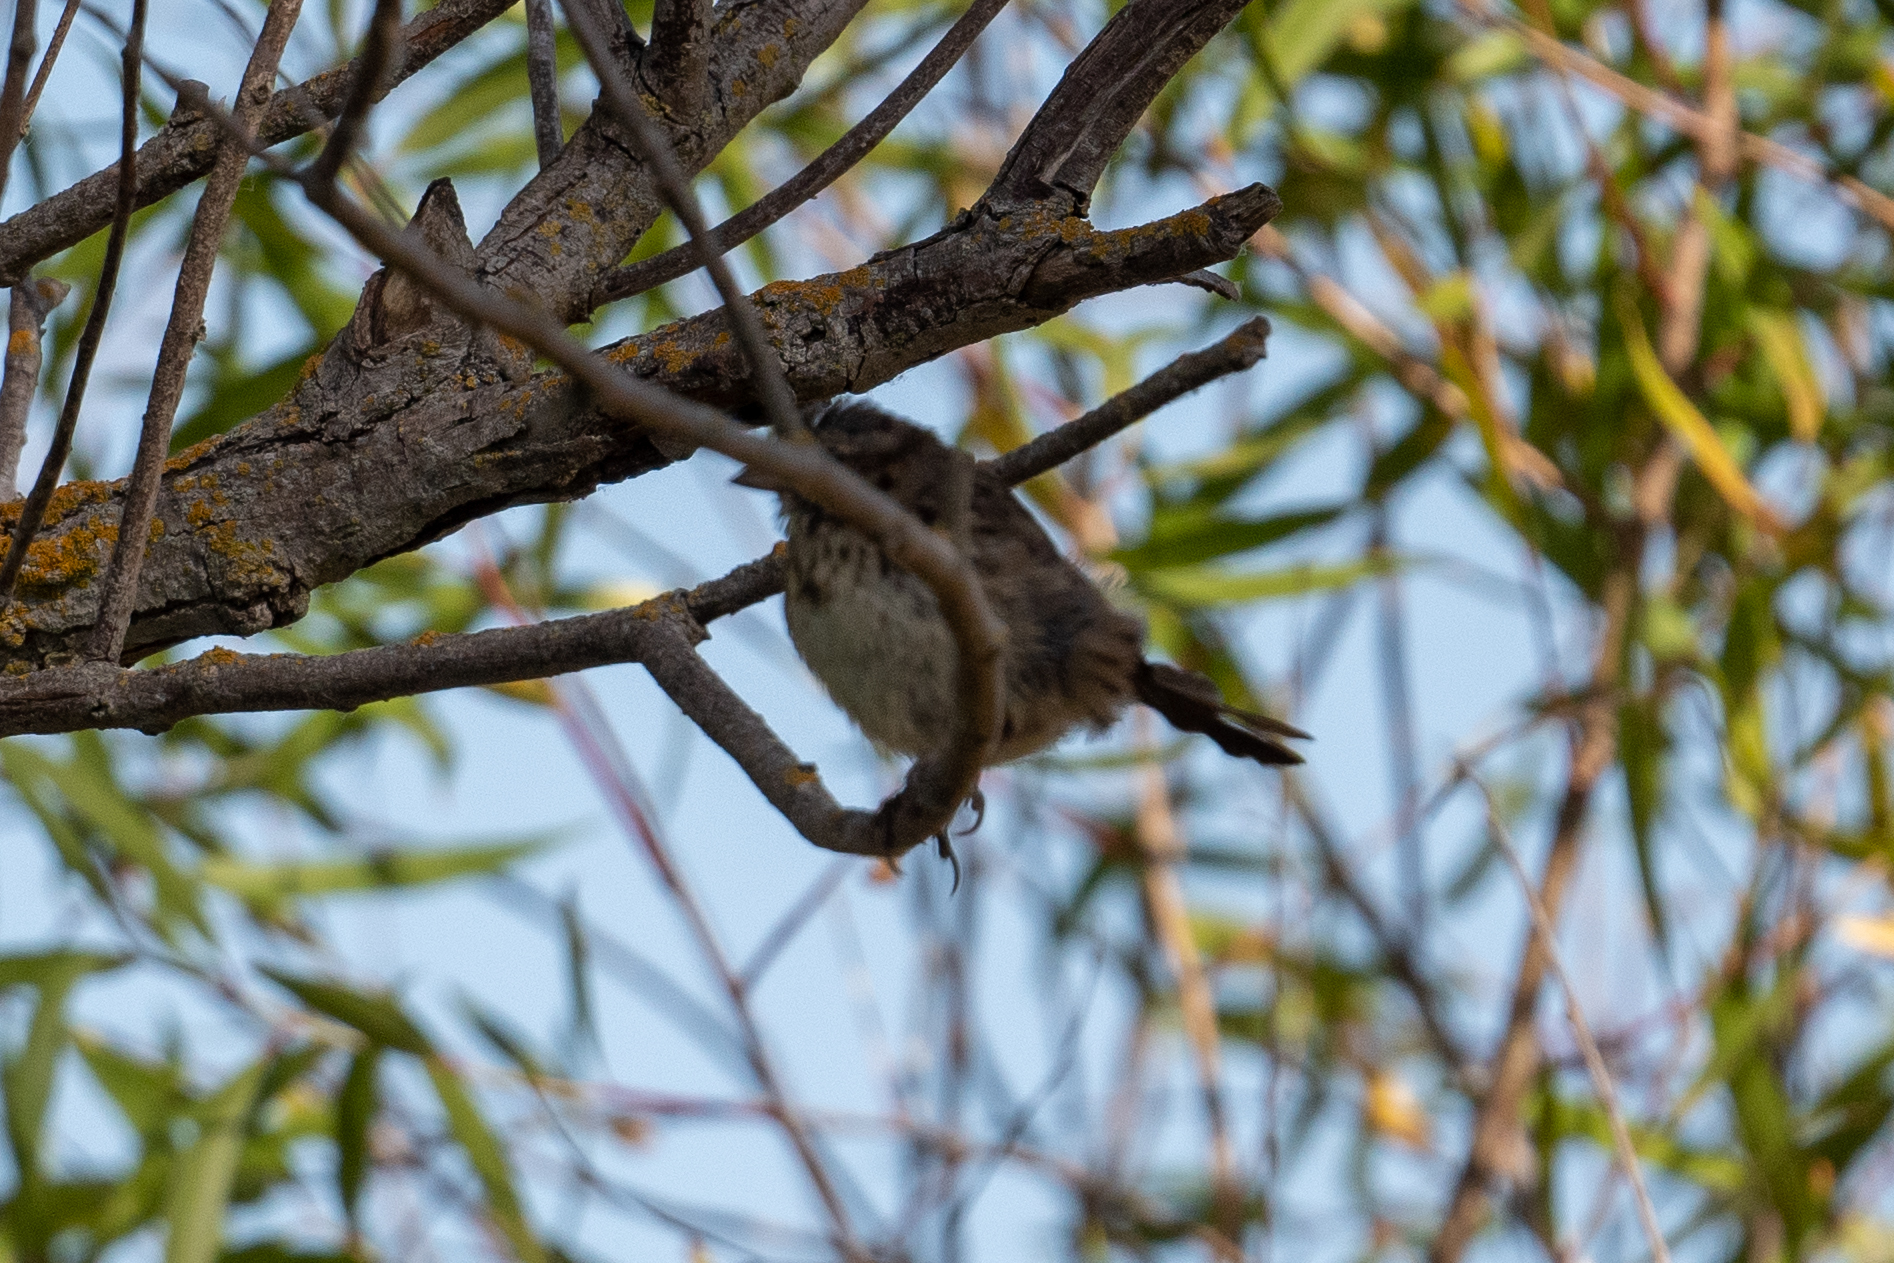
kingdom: Animalia
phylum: Chordata
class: Aves
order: Passeriformes
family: Passerellidae
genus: Melospiza
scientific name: Melospiza melodia
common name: Song sparrow
